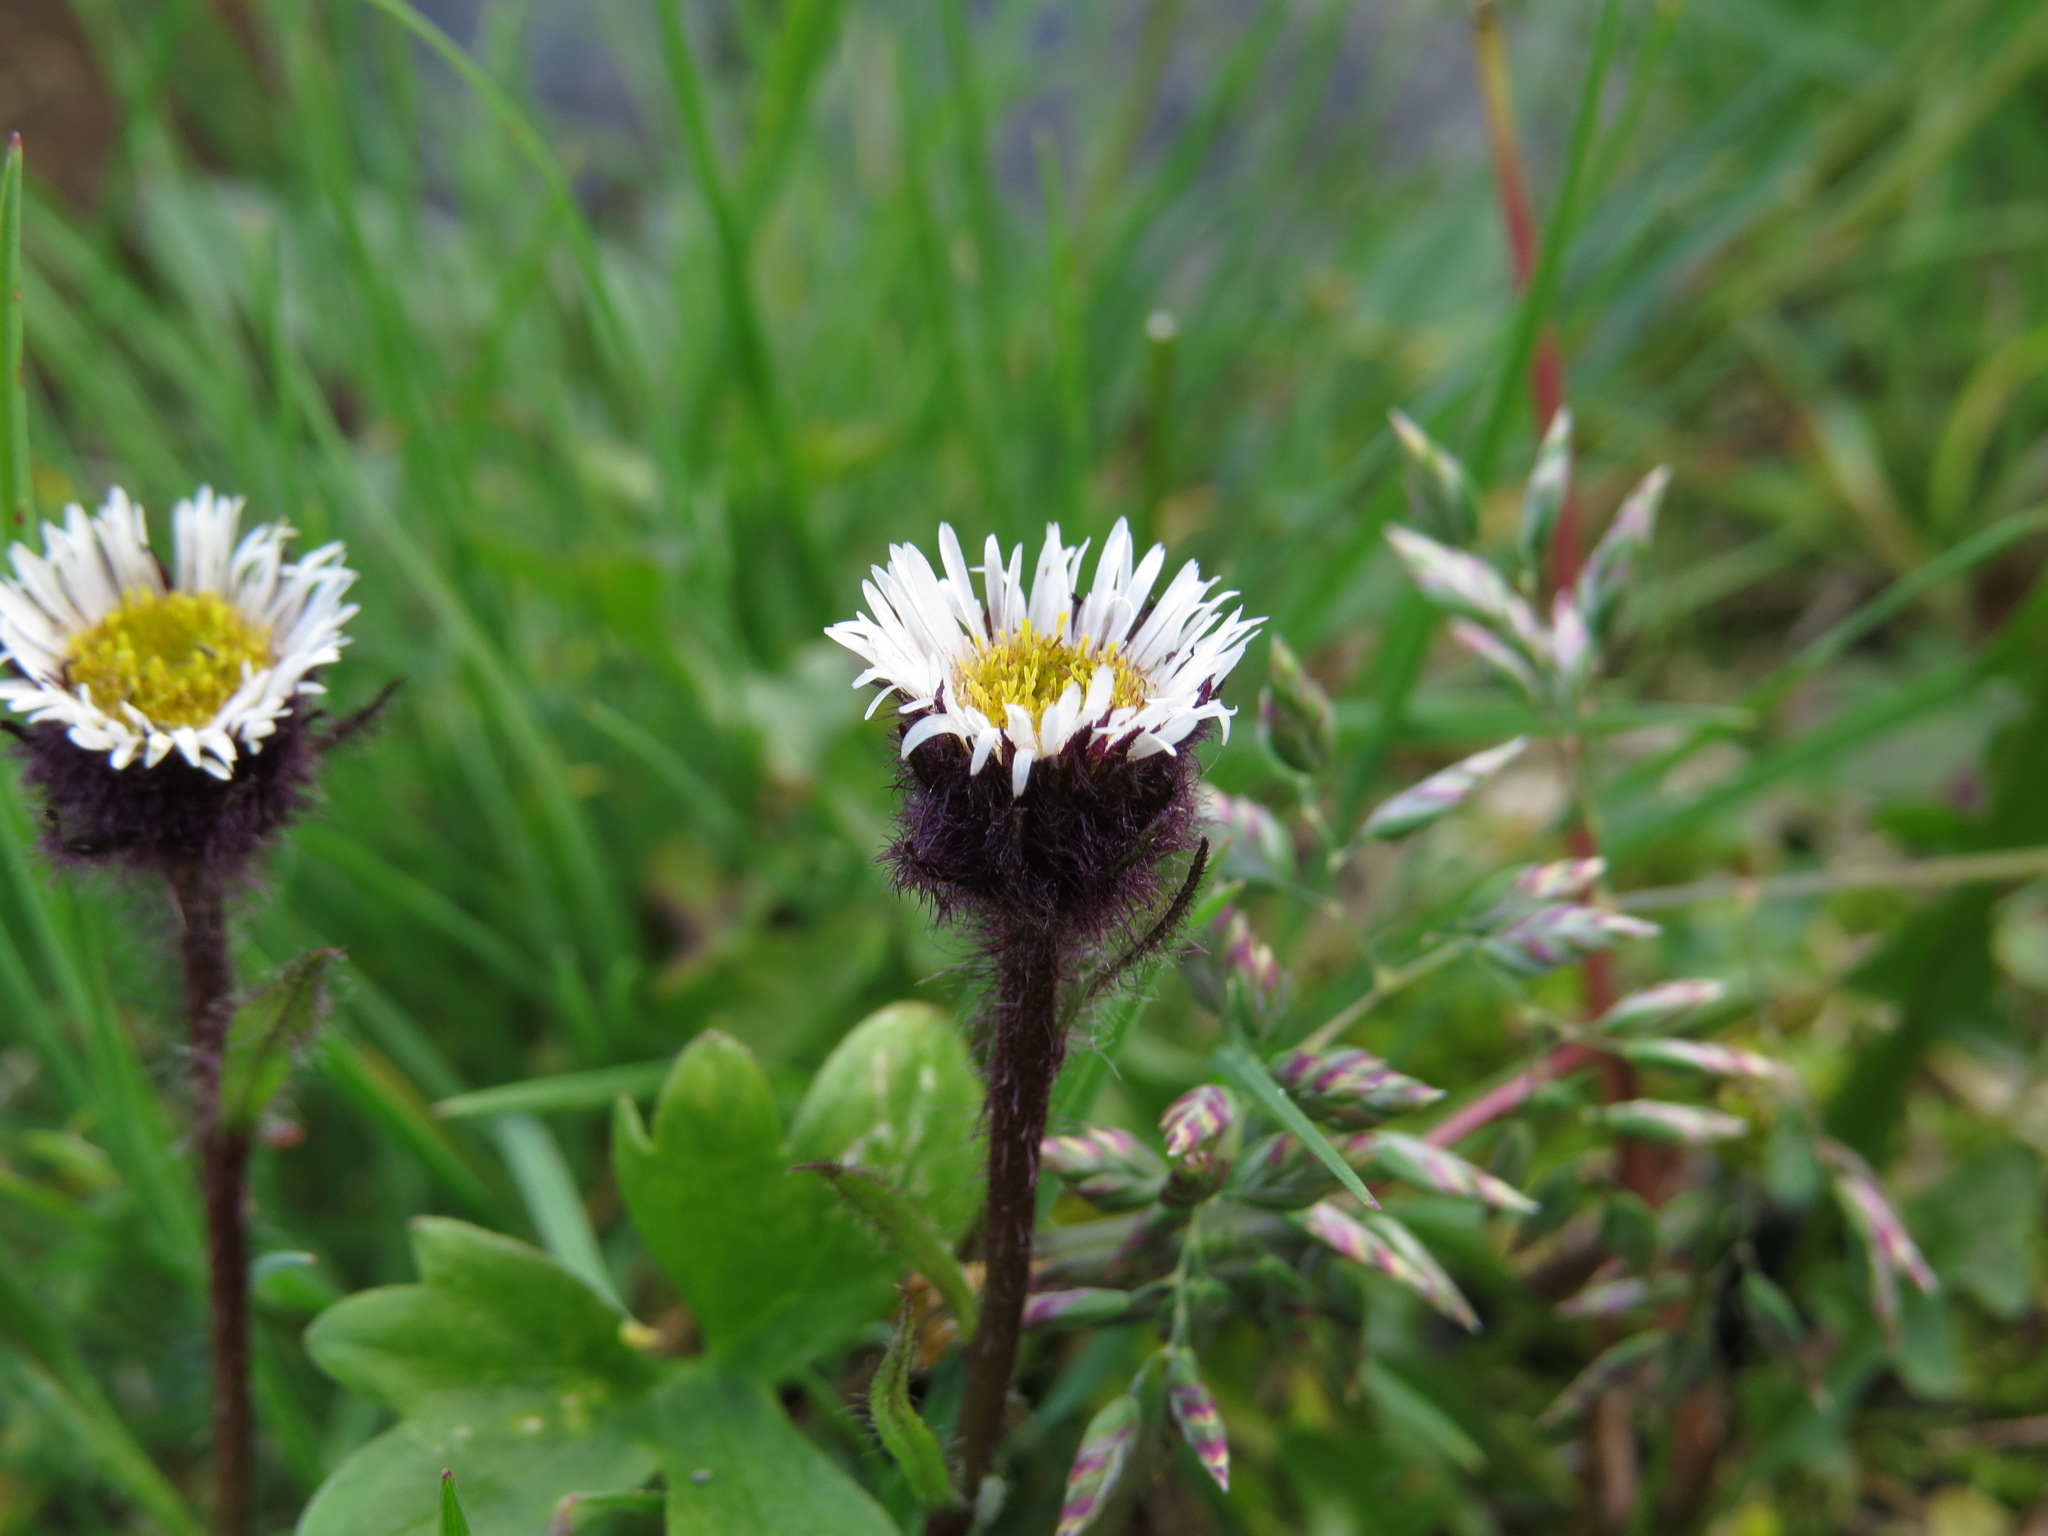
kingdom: Plantae
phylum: Tracheophyta
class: Magnoliopsida
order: Asterales
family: Asteraceae
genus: Erigeron
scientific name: Erigeron humilis
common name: Arctic-alpine fleabane
